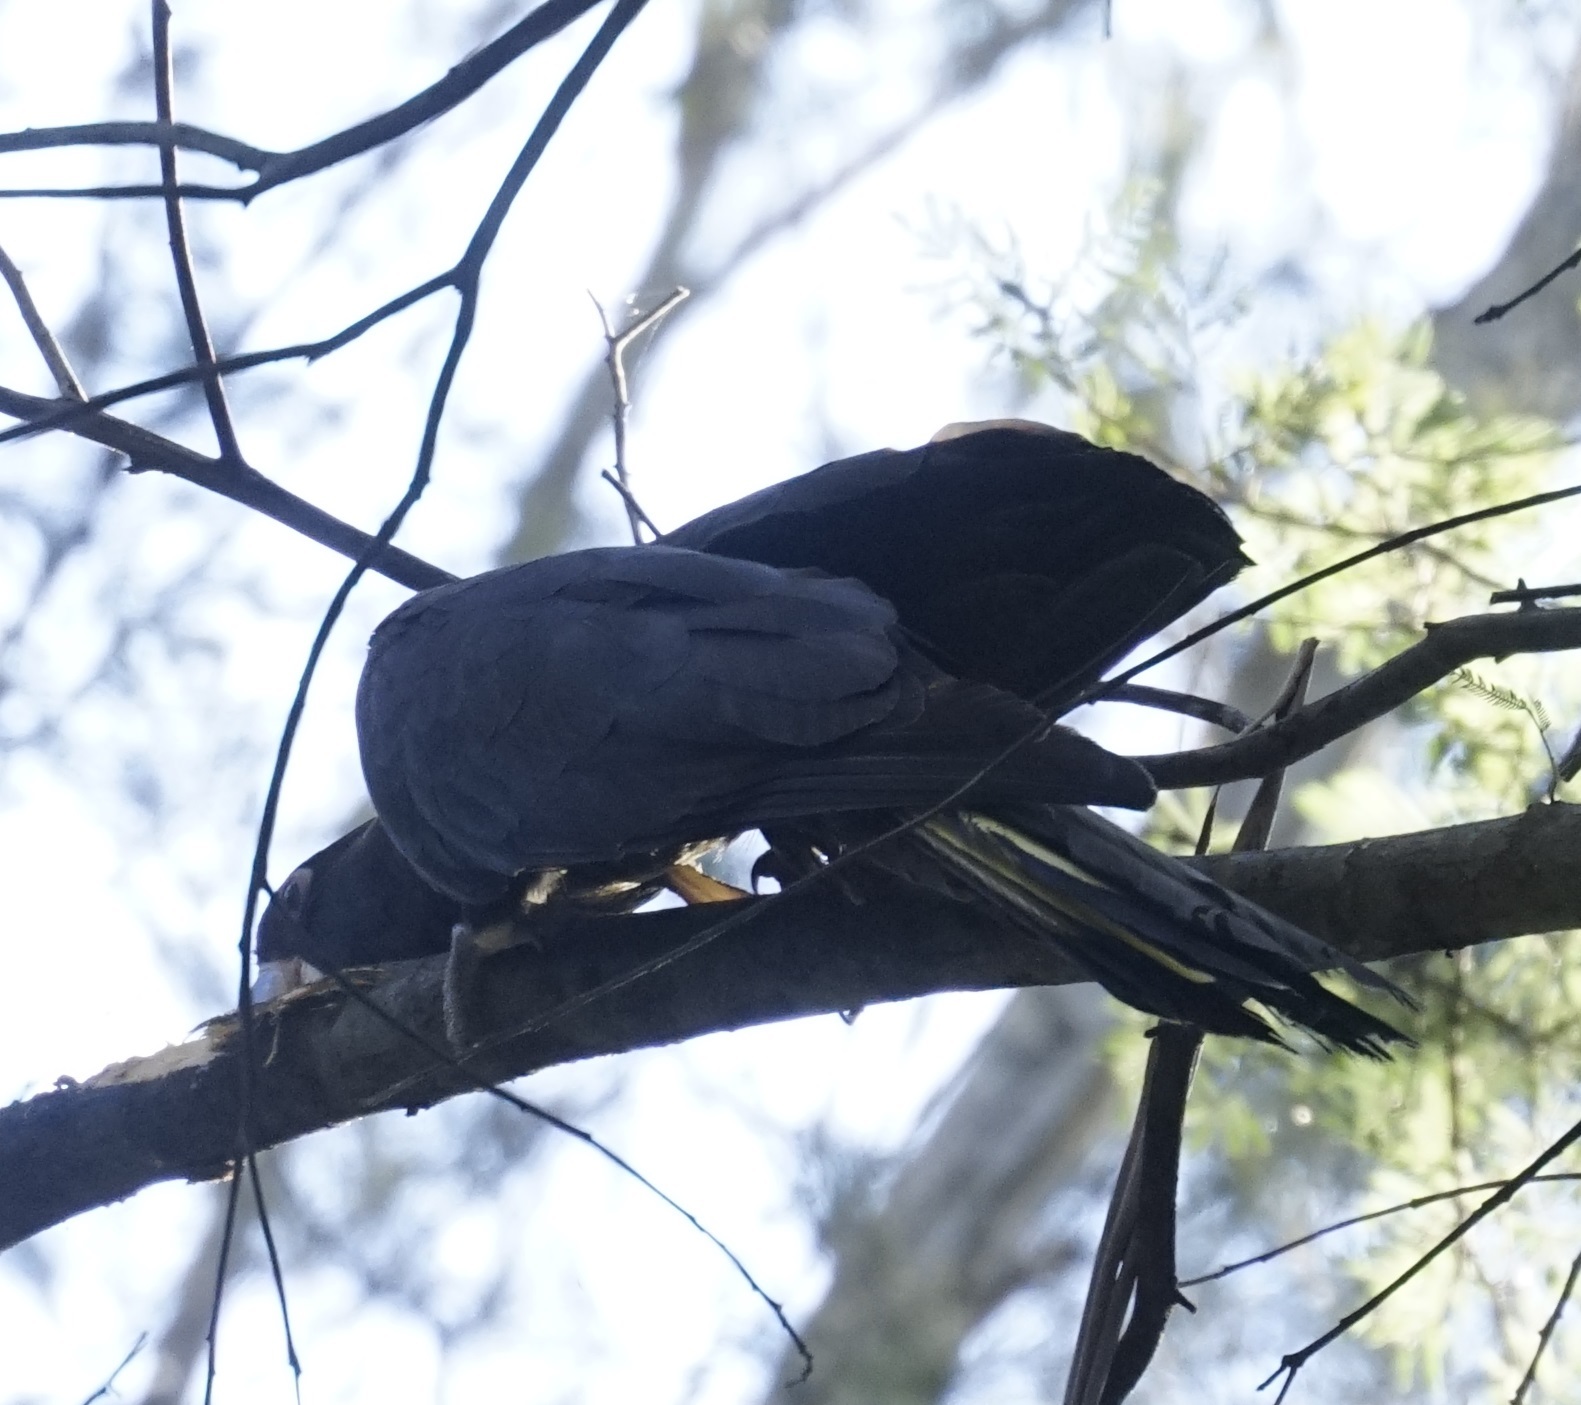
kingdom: Animalia
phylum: Chordata
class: Aves
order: Psittaciformes
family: Cacatuidae
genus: Zanda
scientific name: Zanda funerea
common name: Yellow-tailed black-cockatoo
